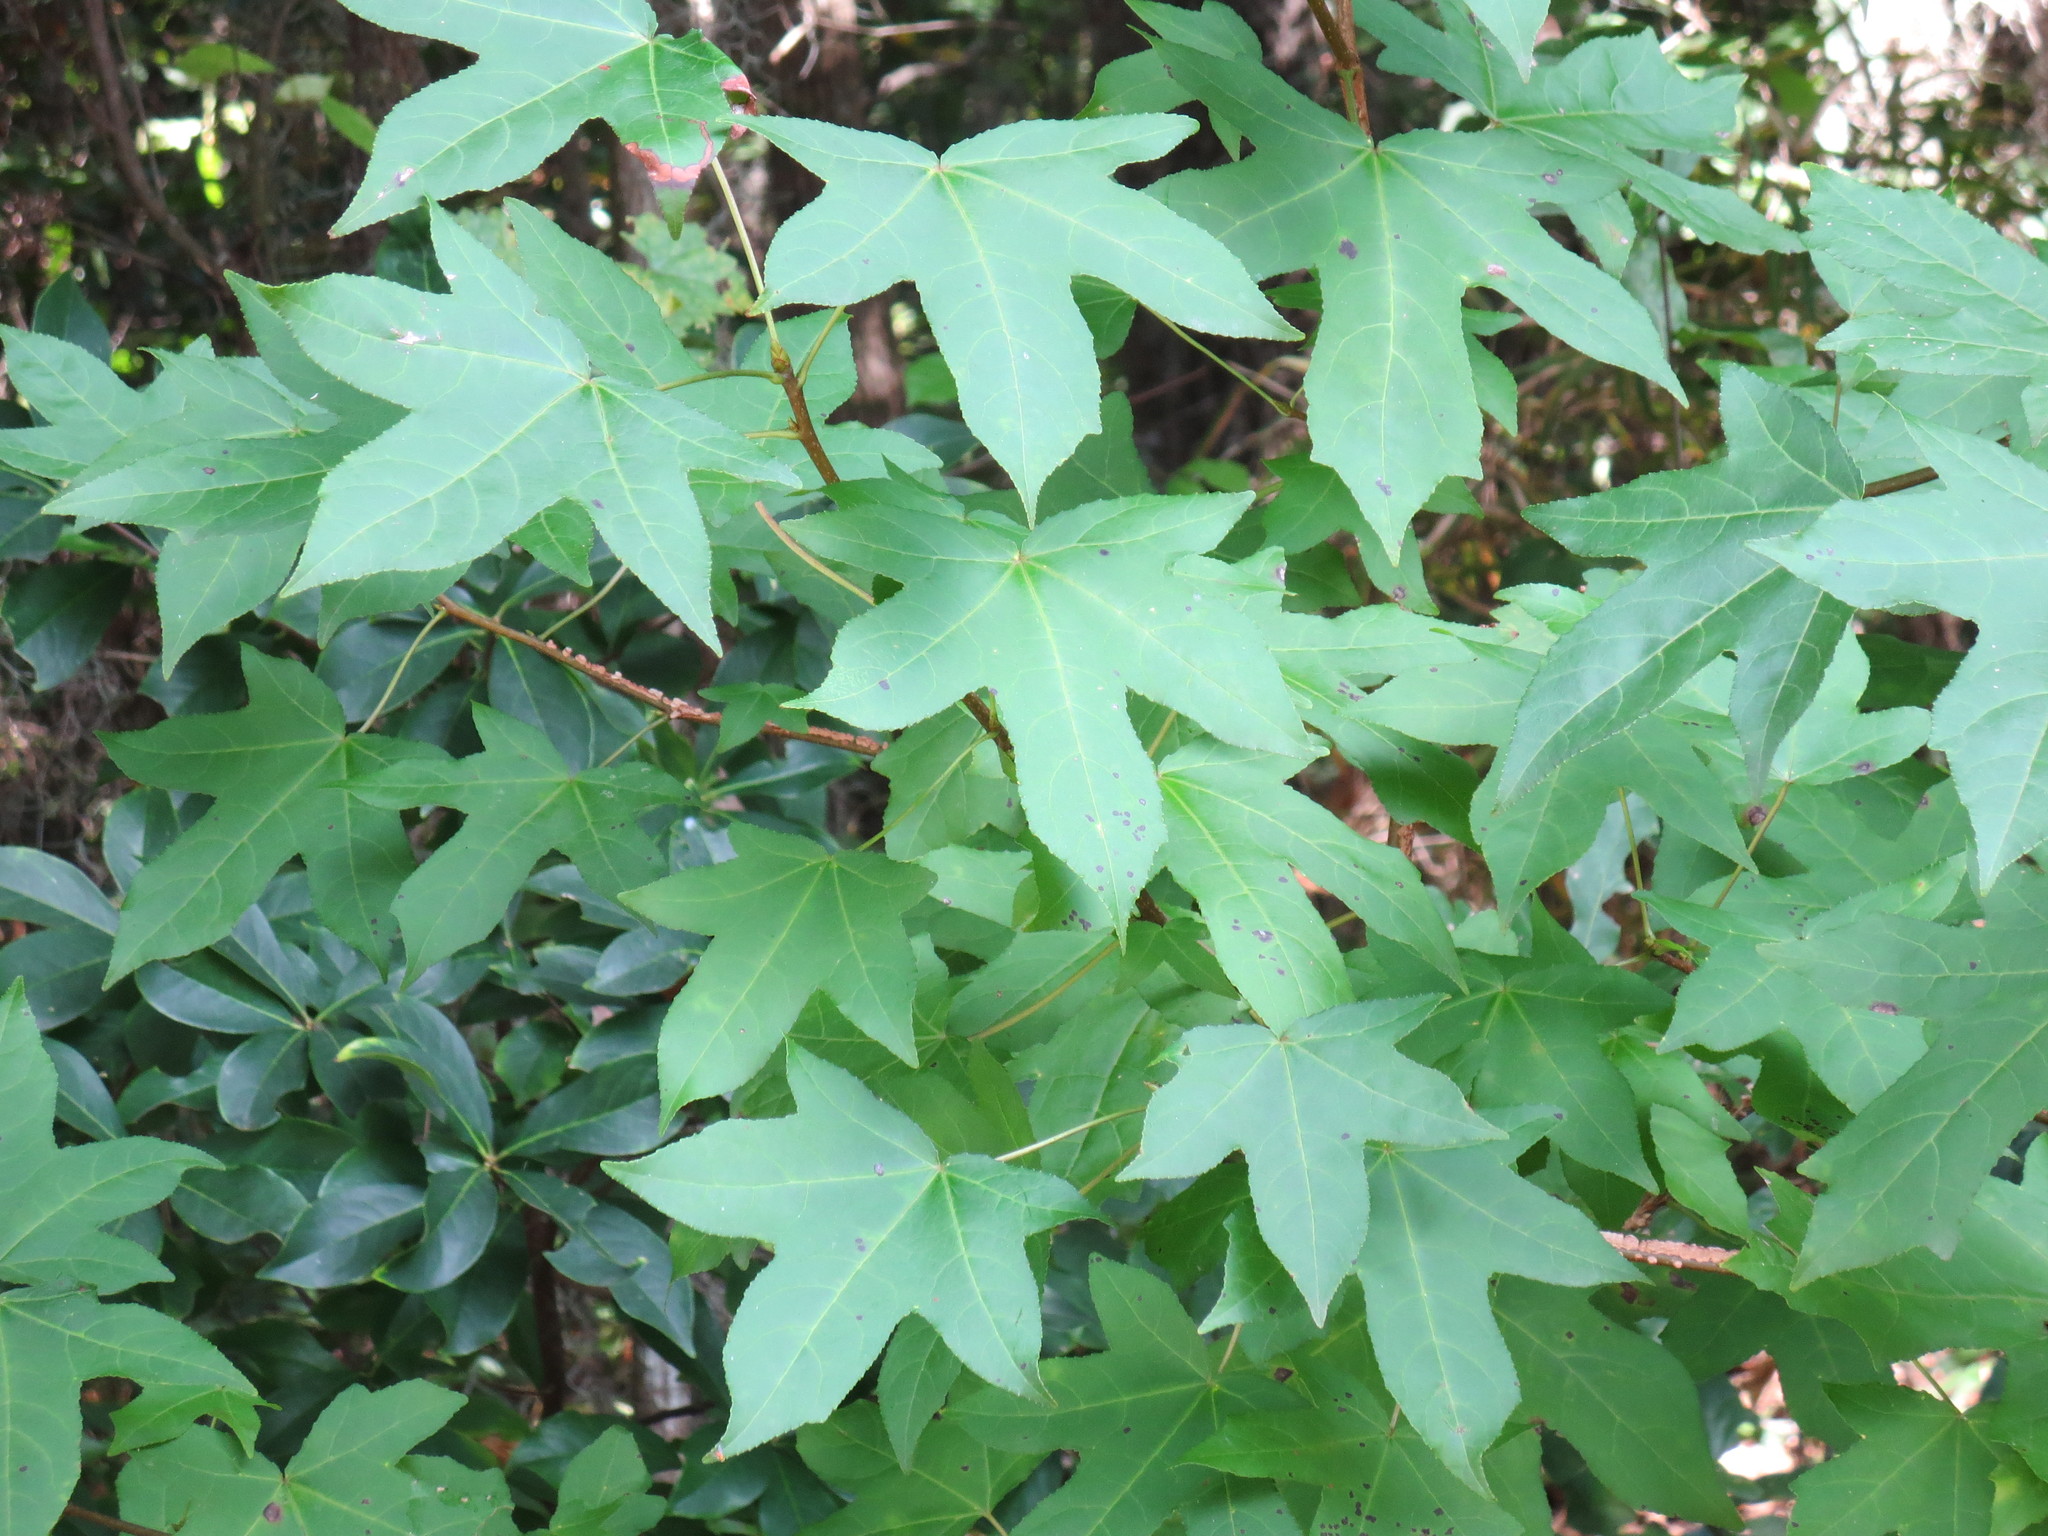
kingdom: Plantae
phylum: Tracheophyta
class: Magnoliopsida
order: Saxifragales
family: Altingiaceae
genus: Liquidambar
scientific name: Liquidambar styraciflua
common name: Sweet gum
